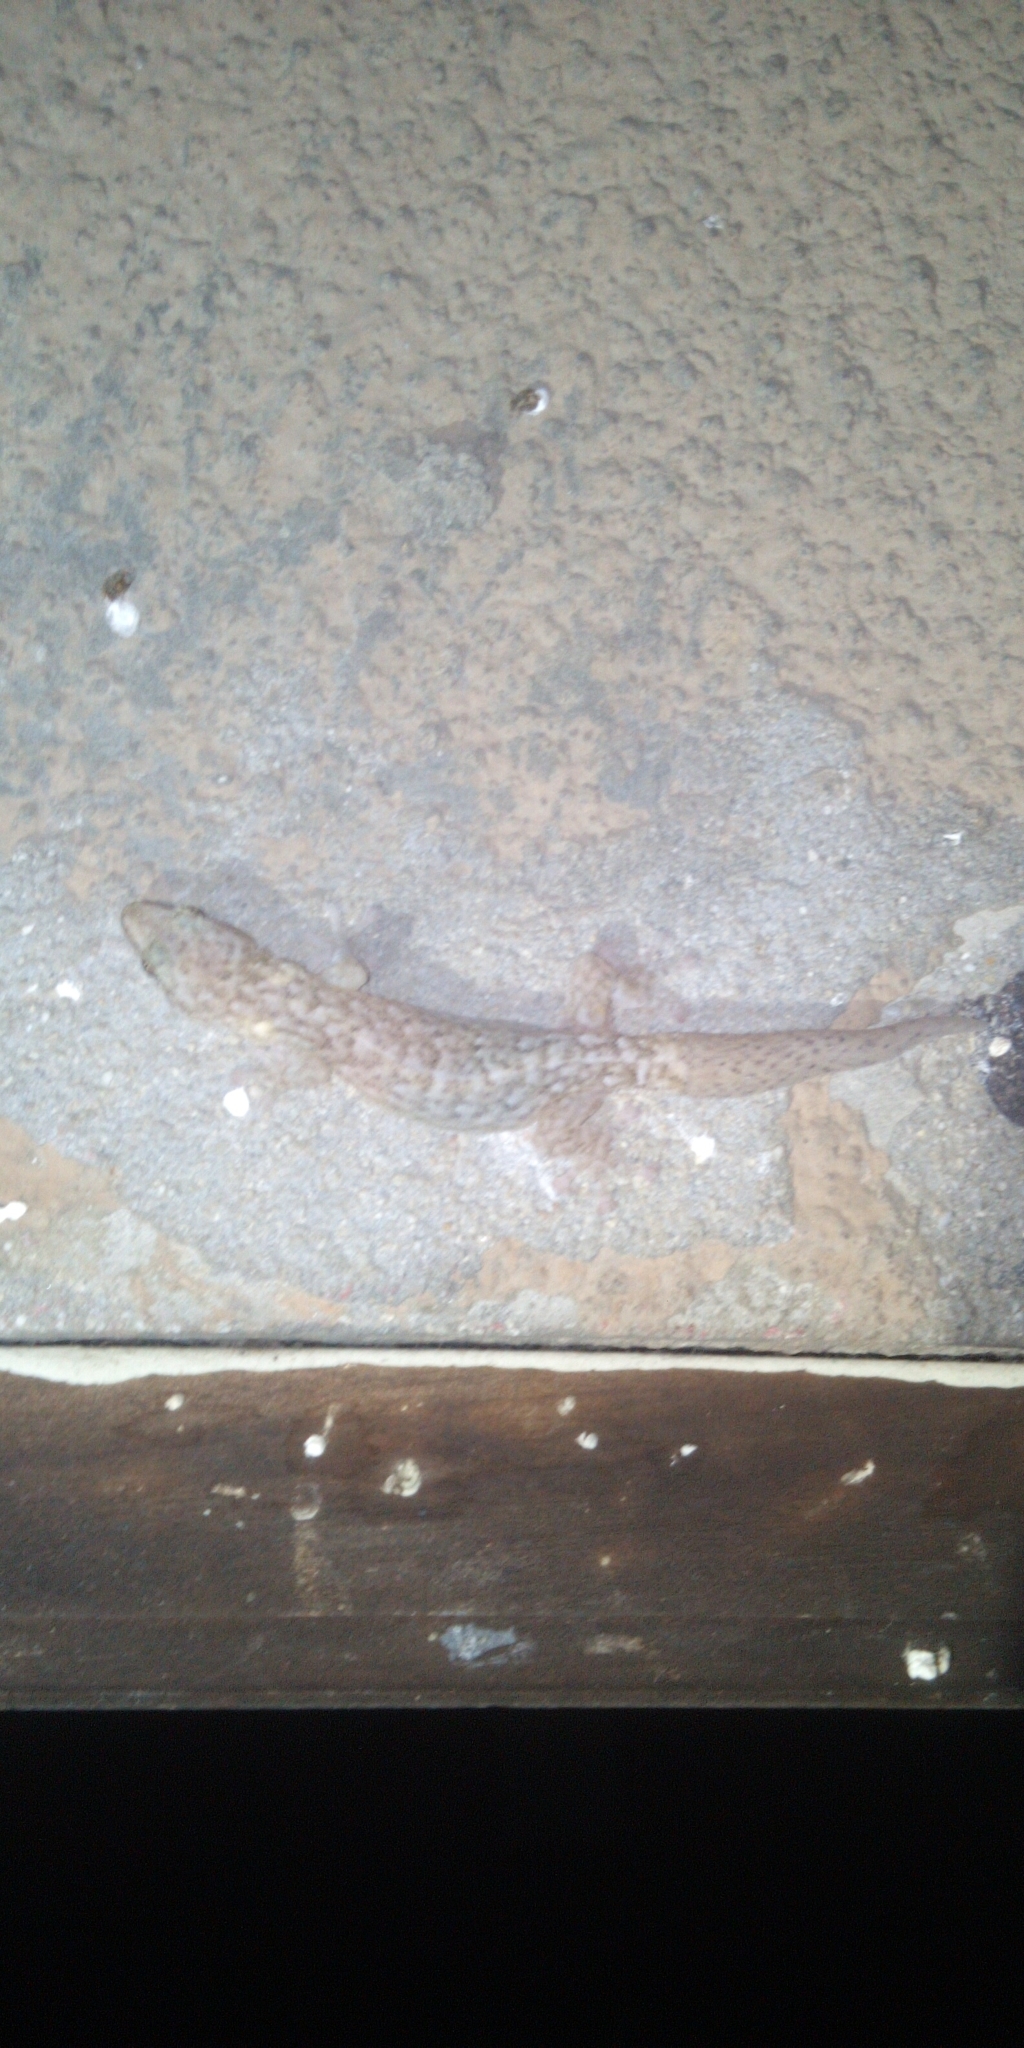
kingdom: Animalia
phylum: Chordata
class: Squamata
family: Gekkonidae
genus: Afrogecko
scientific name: Afrogecko porphyreus
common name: Marbled leaf-toed gecko
